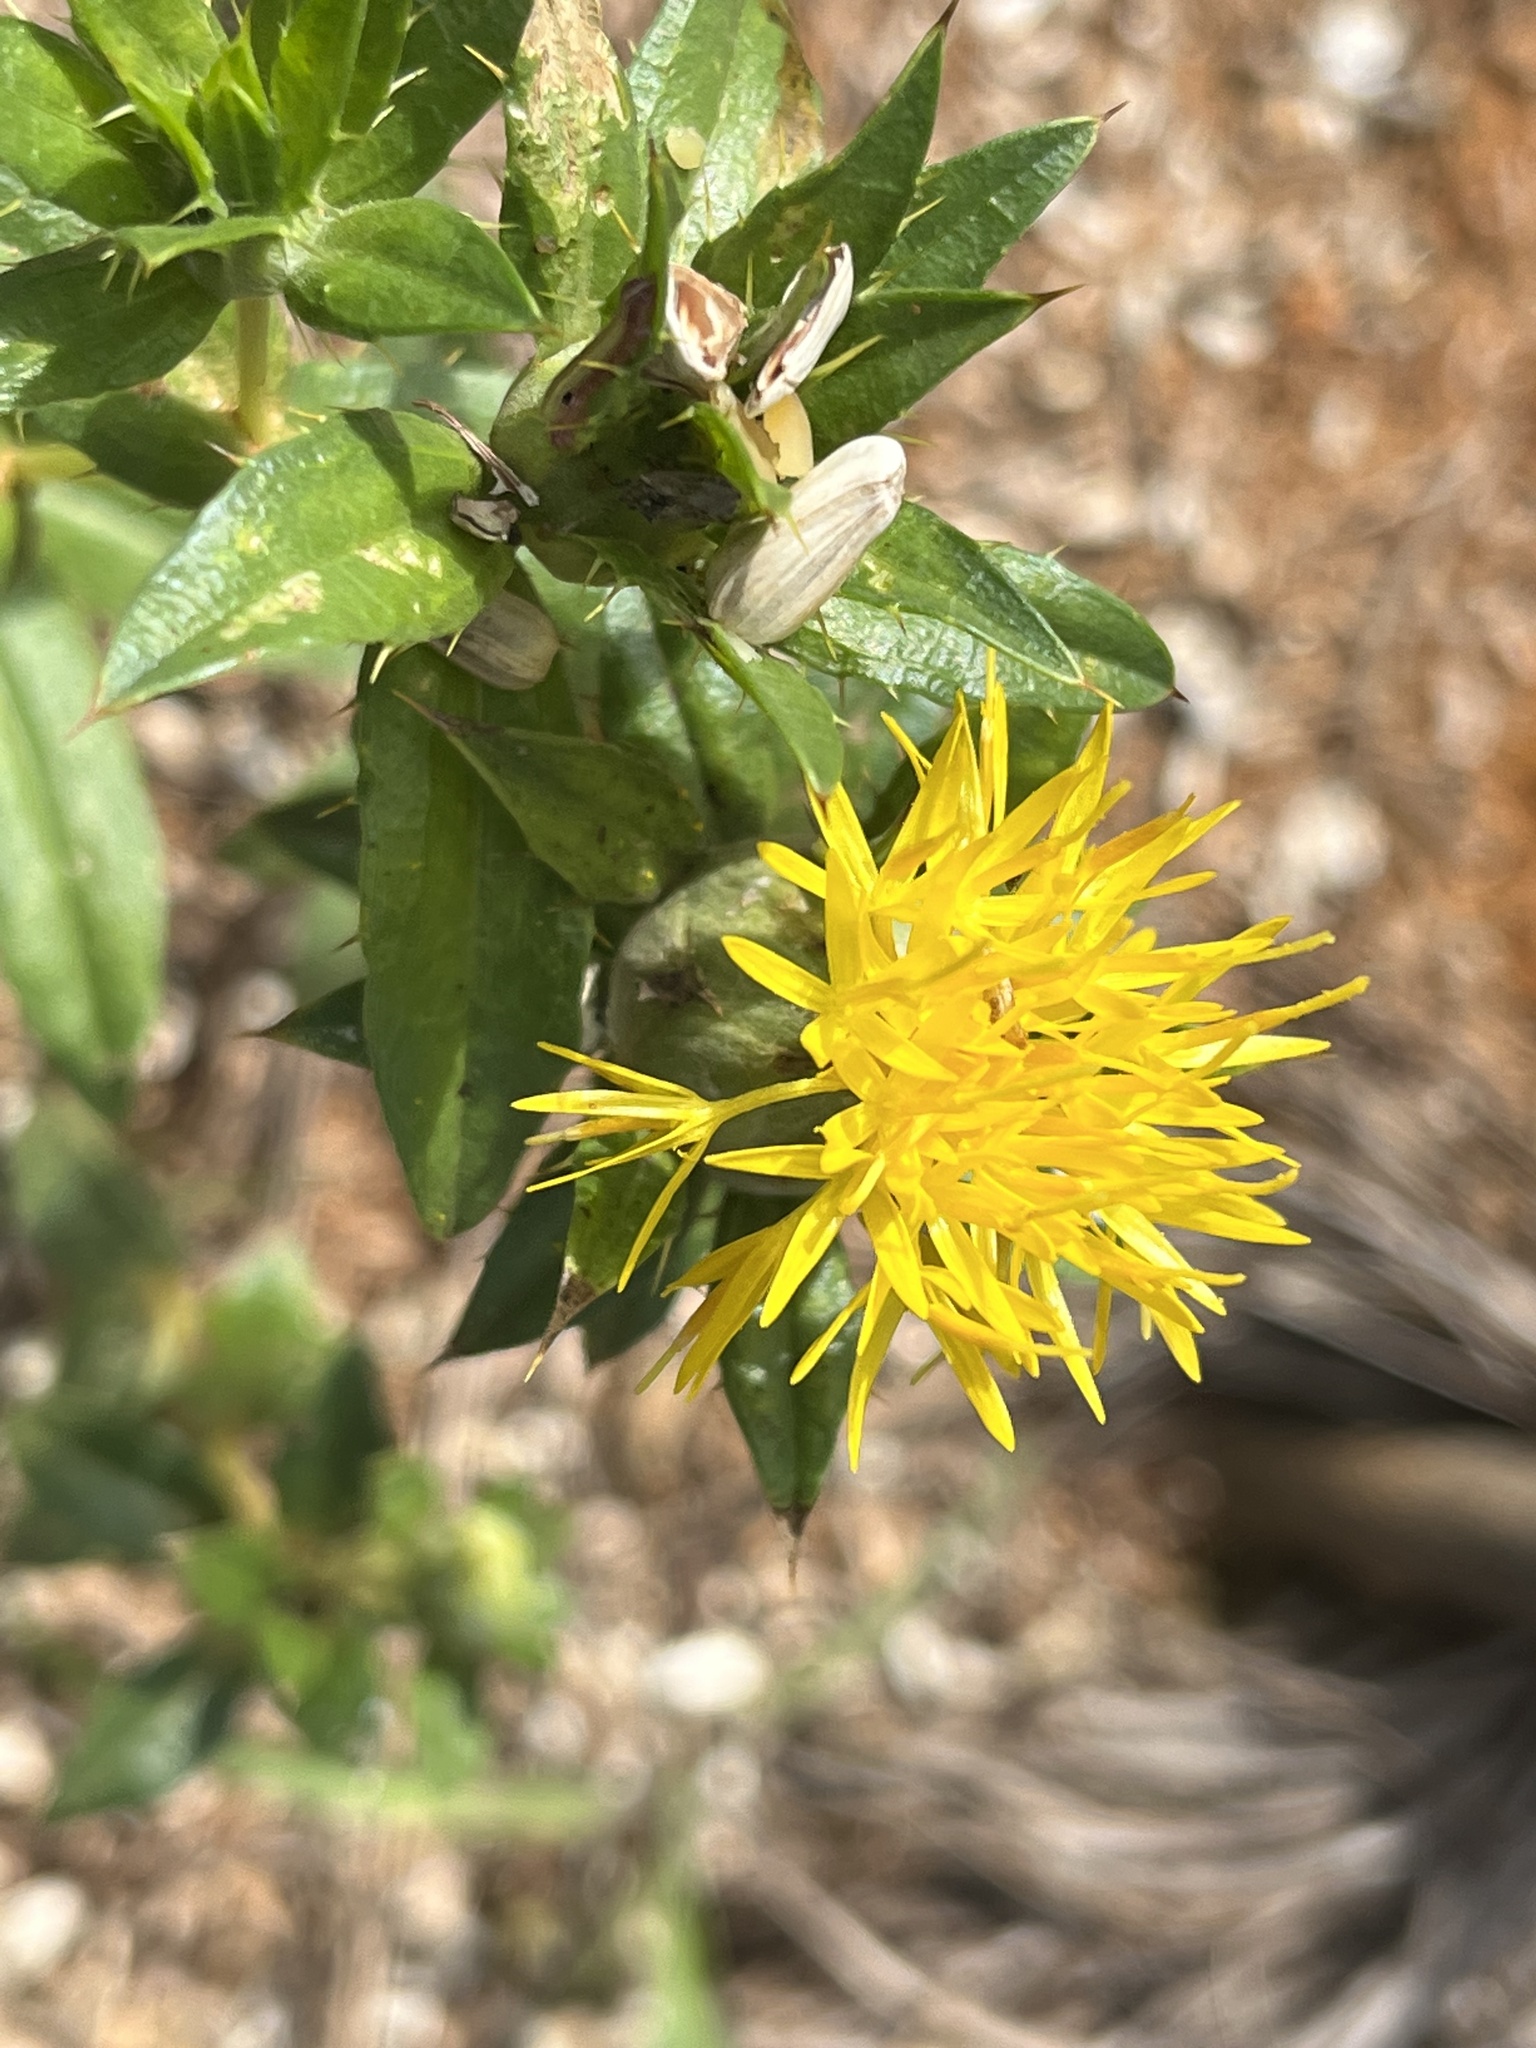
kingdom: Plantae
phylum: Tracheophyta
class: Magnoliopsida
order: Asterales
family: Asteraceae
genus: Carthamus
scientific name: Carthamus tinctorius
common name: Safflower
